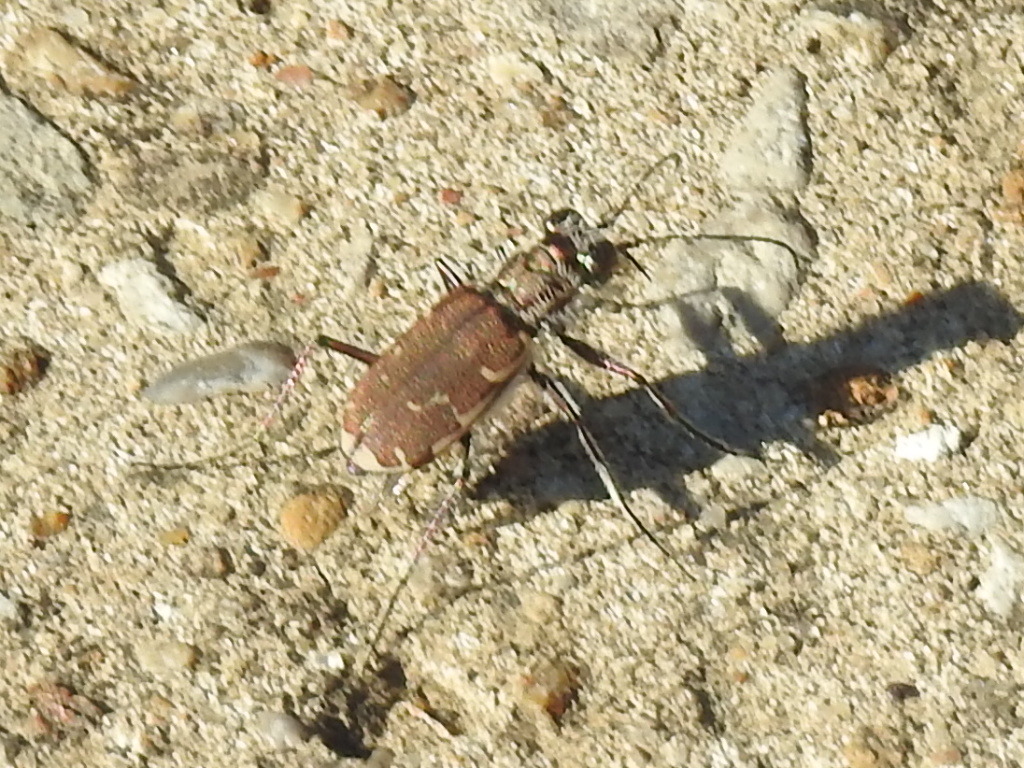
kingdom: Animalia
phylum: Arthropoda
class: Insecta
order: Coleoptera
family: Carabidae
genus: Cicindela
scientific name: Cicindela repanda
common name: Bronzed tiger beetle
